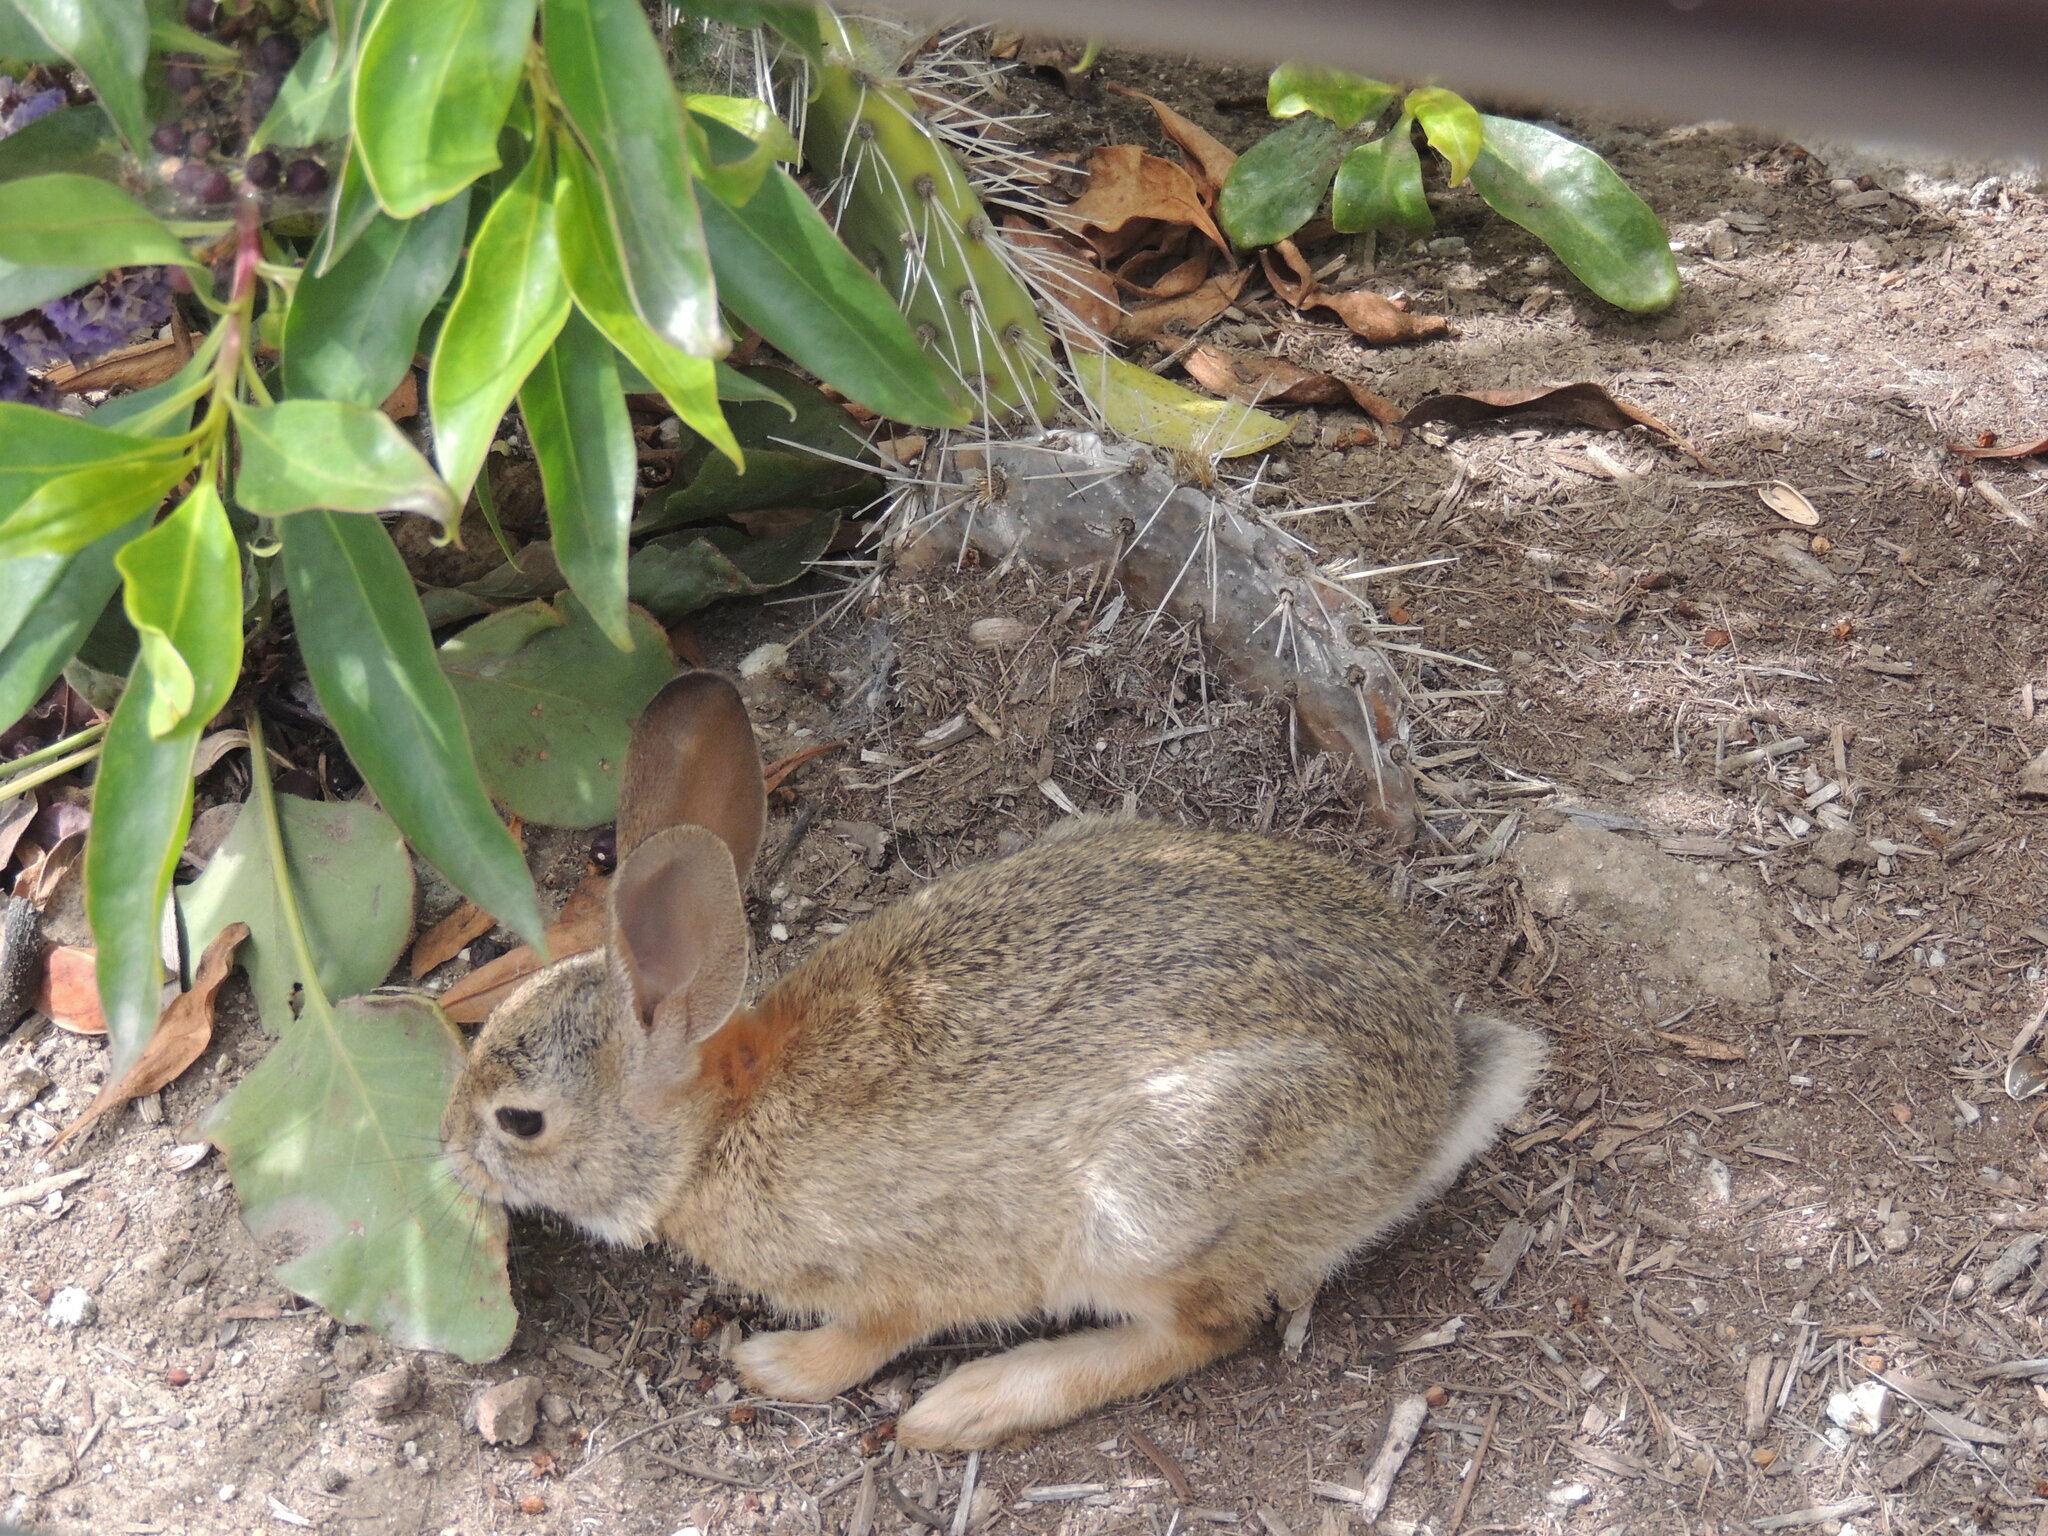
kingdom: Animalia
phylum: Chordata
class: Mammalia
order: Lagomorpha
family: Leporidae
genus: Sylvilagus
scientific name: Sylvilagus audubonii
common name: Desert cottontail
